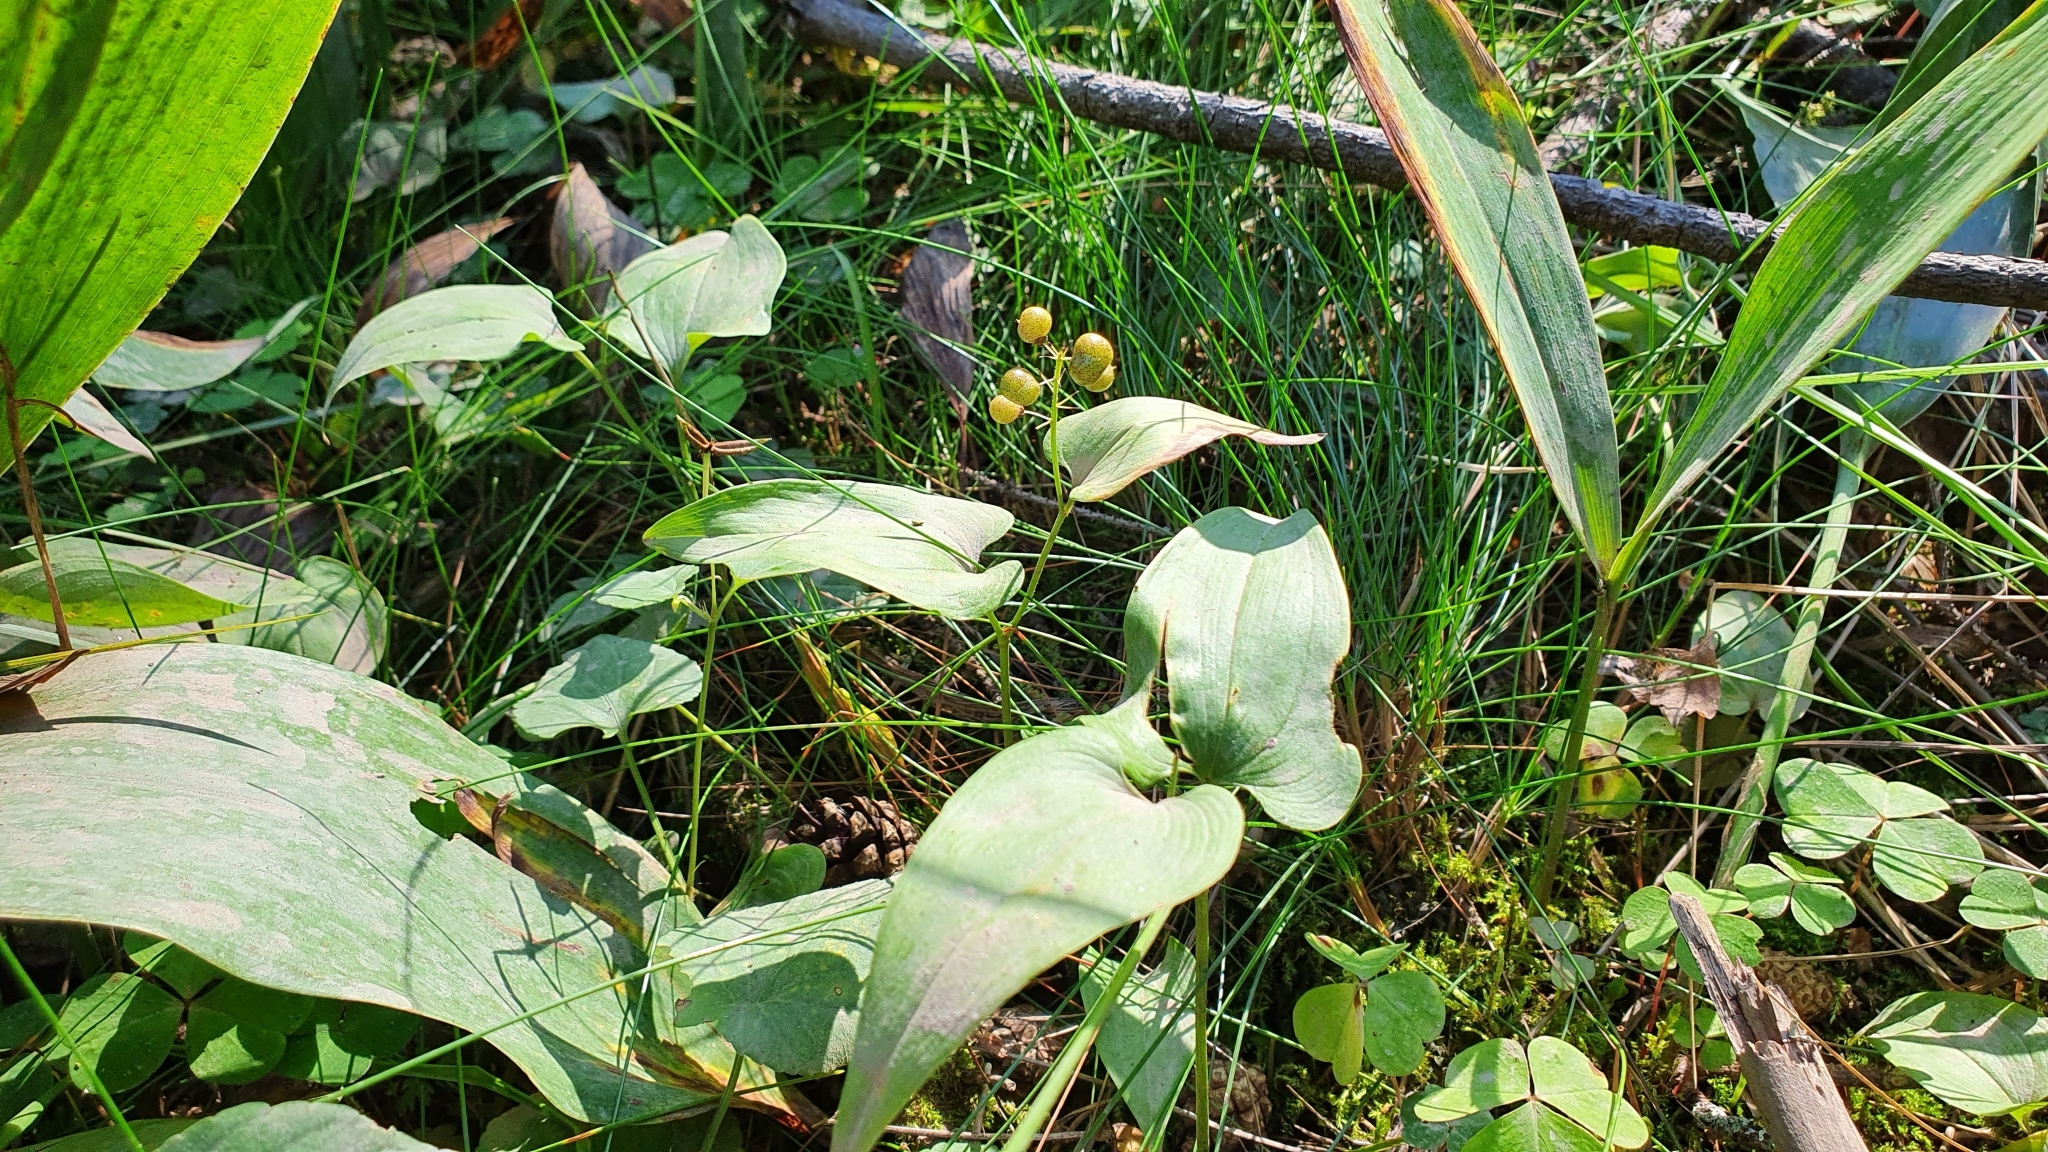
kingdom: Plantae
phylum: Tracheophyta
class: Liliopsida
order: Asparagales
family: Asparagaceae
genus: Maianthemum
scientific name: Maianthemum bifolium
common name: May lily
